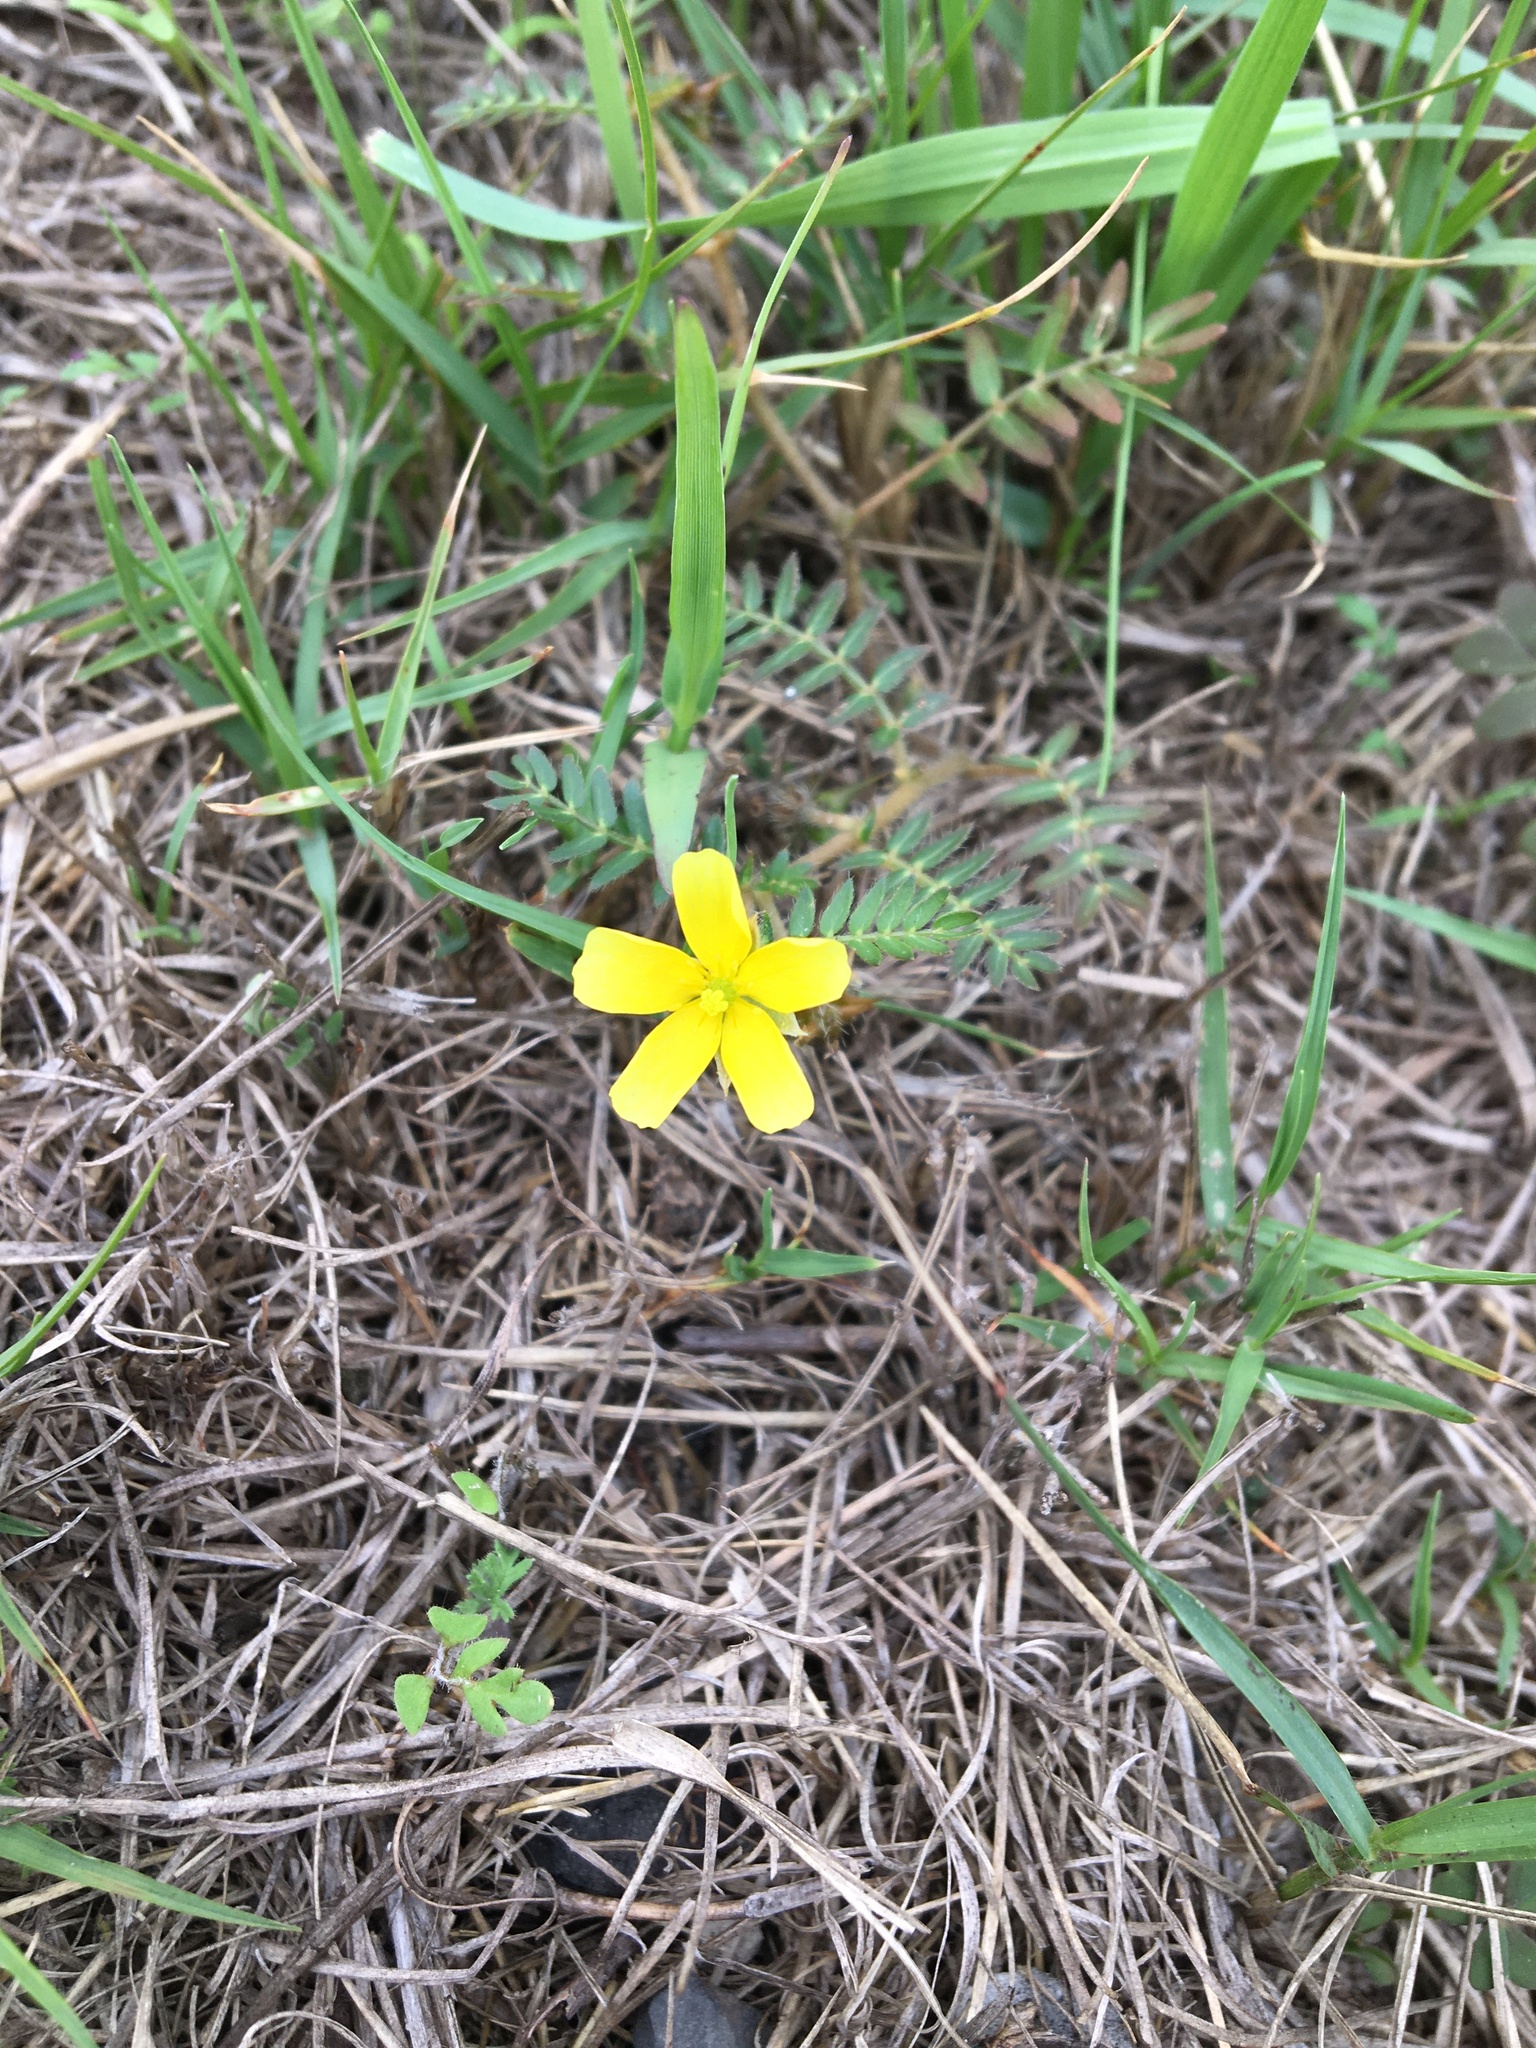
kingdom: Plantae
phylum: Tracheophyta
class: Magnoliopsida
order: Zygophyllales
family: Zygophyllaceae
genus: Tribulus
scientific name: Tribulus terrestris
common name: Puncturevine
